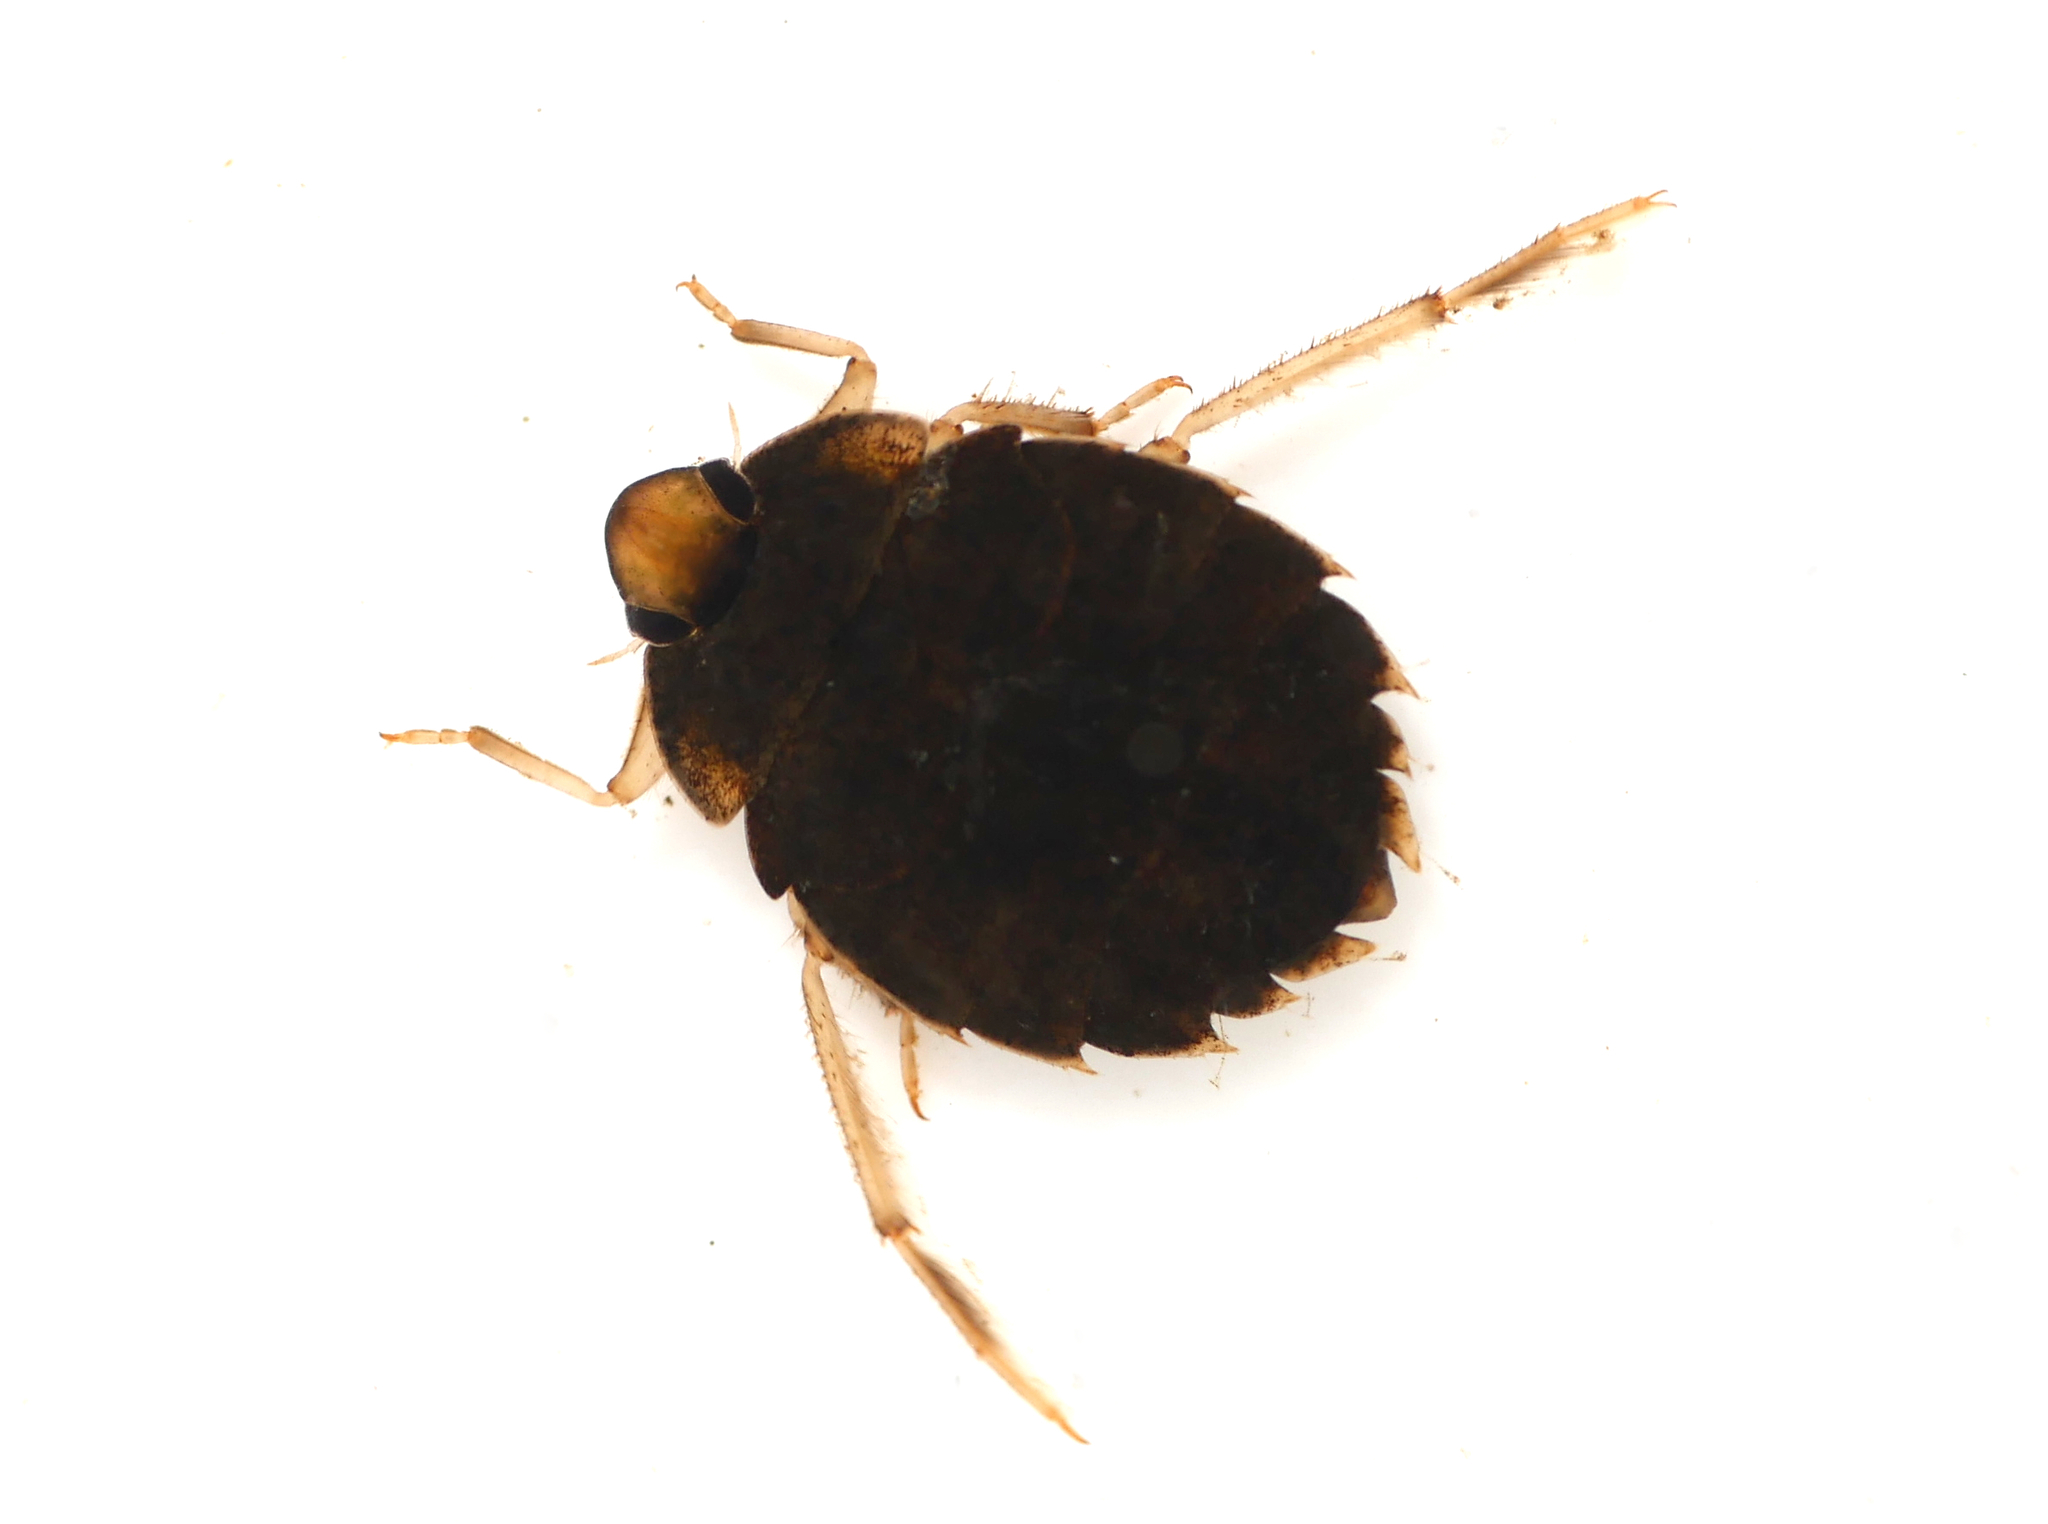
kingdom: Animalia
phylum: Arthropoda
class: Insecta
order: Hemiptera
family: Aphelocheiridae
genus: Aphelocheirus
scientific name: Aphelocheirus aestivalis
